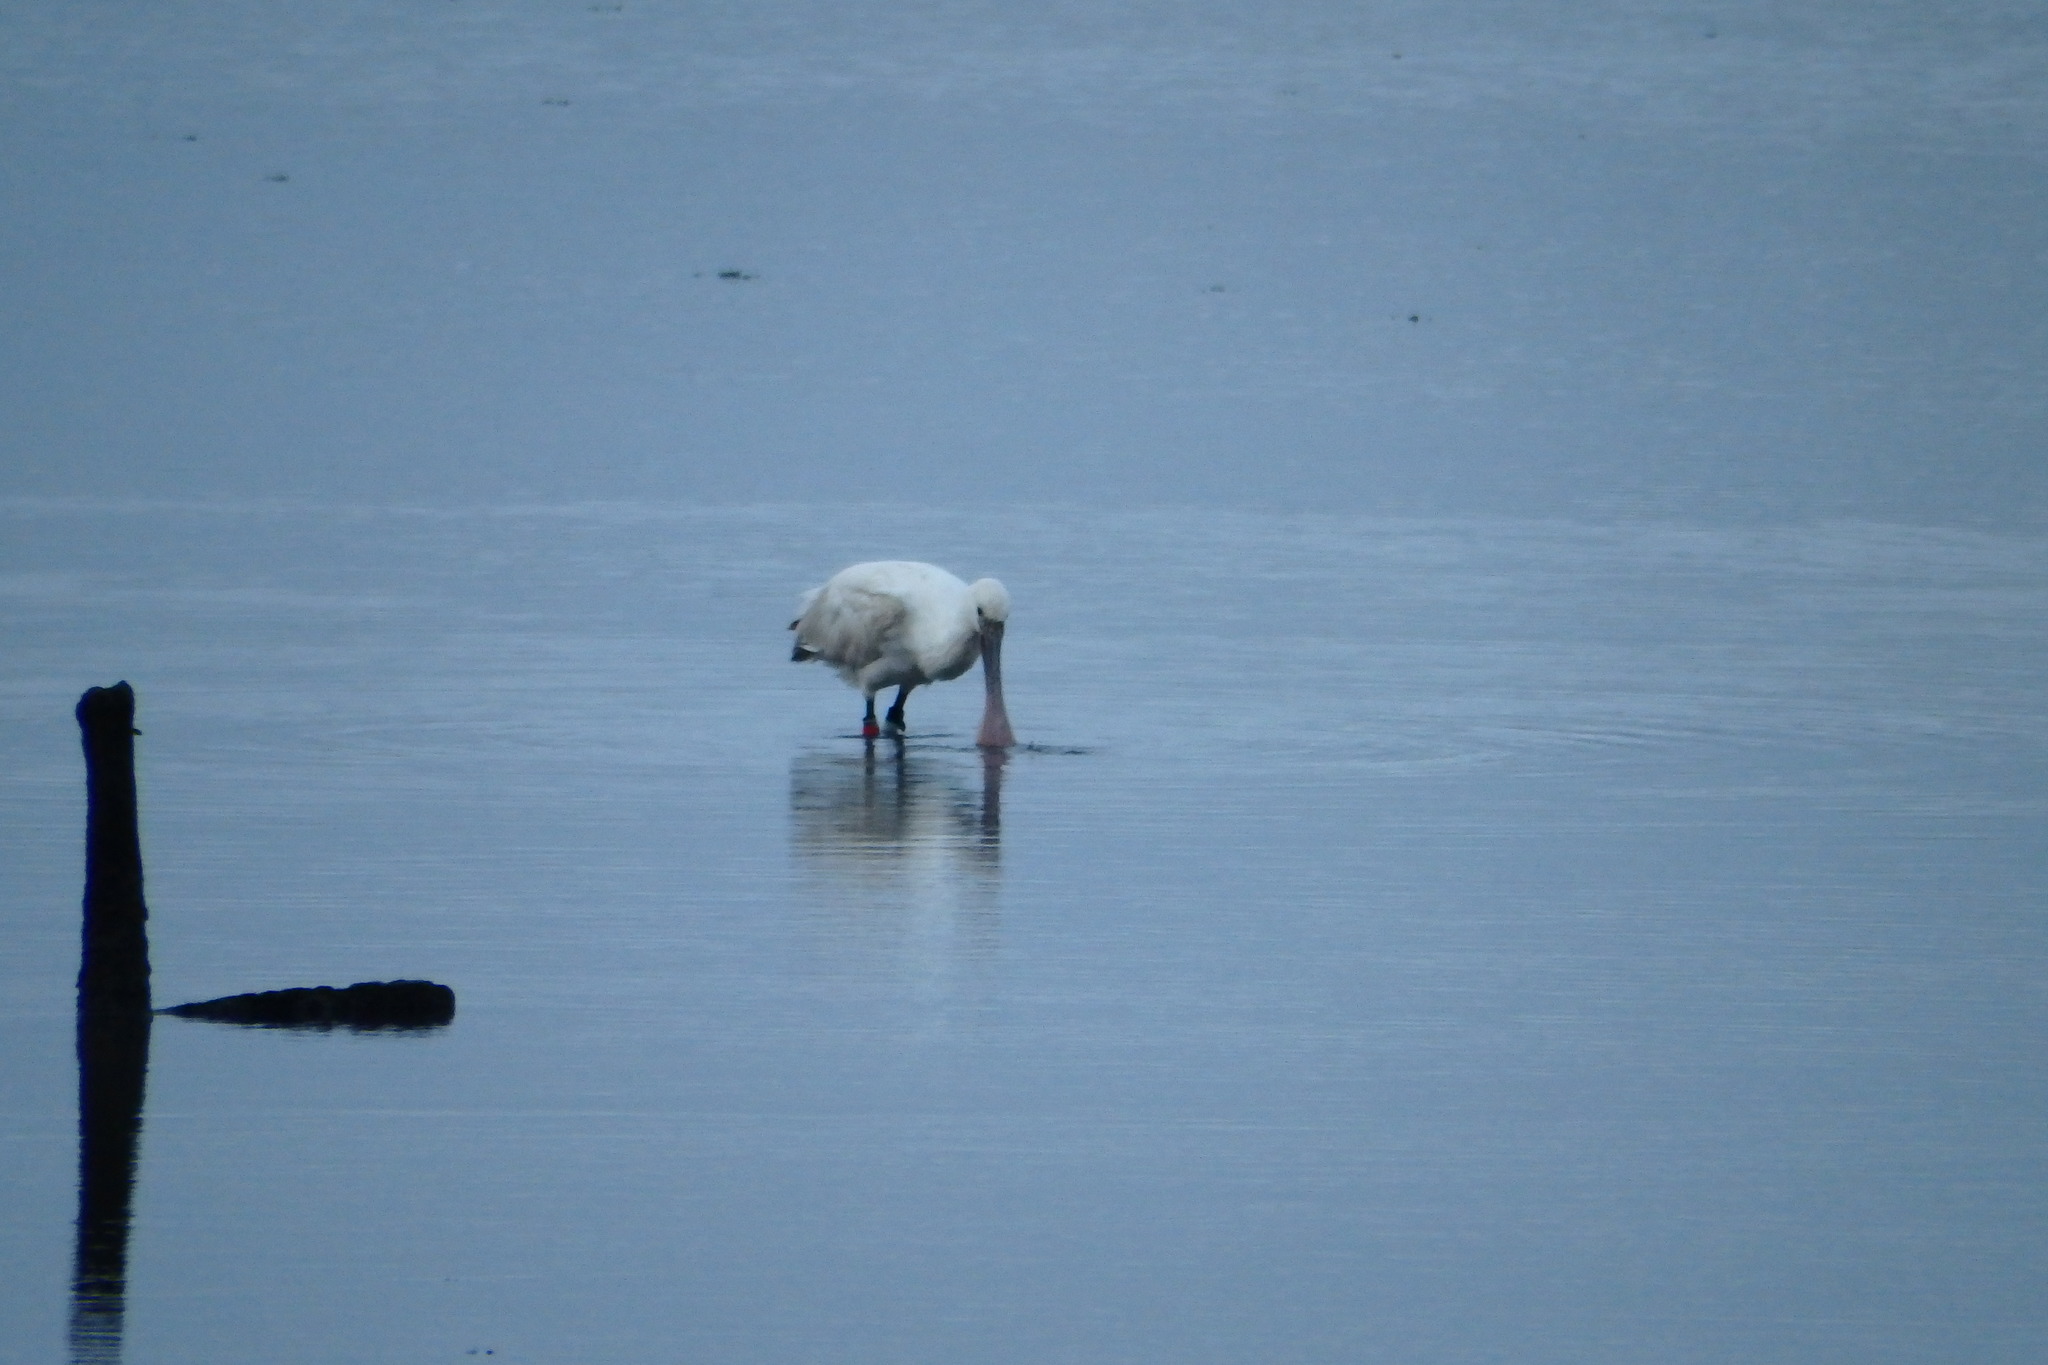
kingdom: Animalia
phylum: Chordata
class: Aves
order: Pelecaniformes
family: Threskiornithidae
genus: Platalea
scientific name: Platalea leucorodia
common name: Eurasian spoonbill
